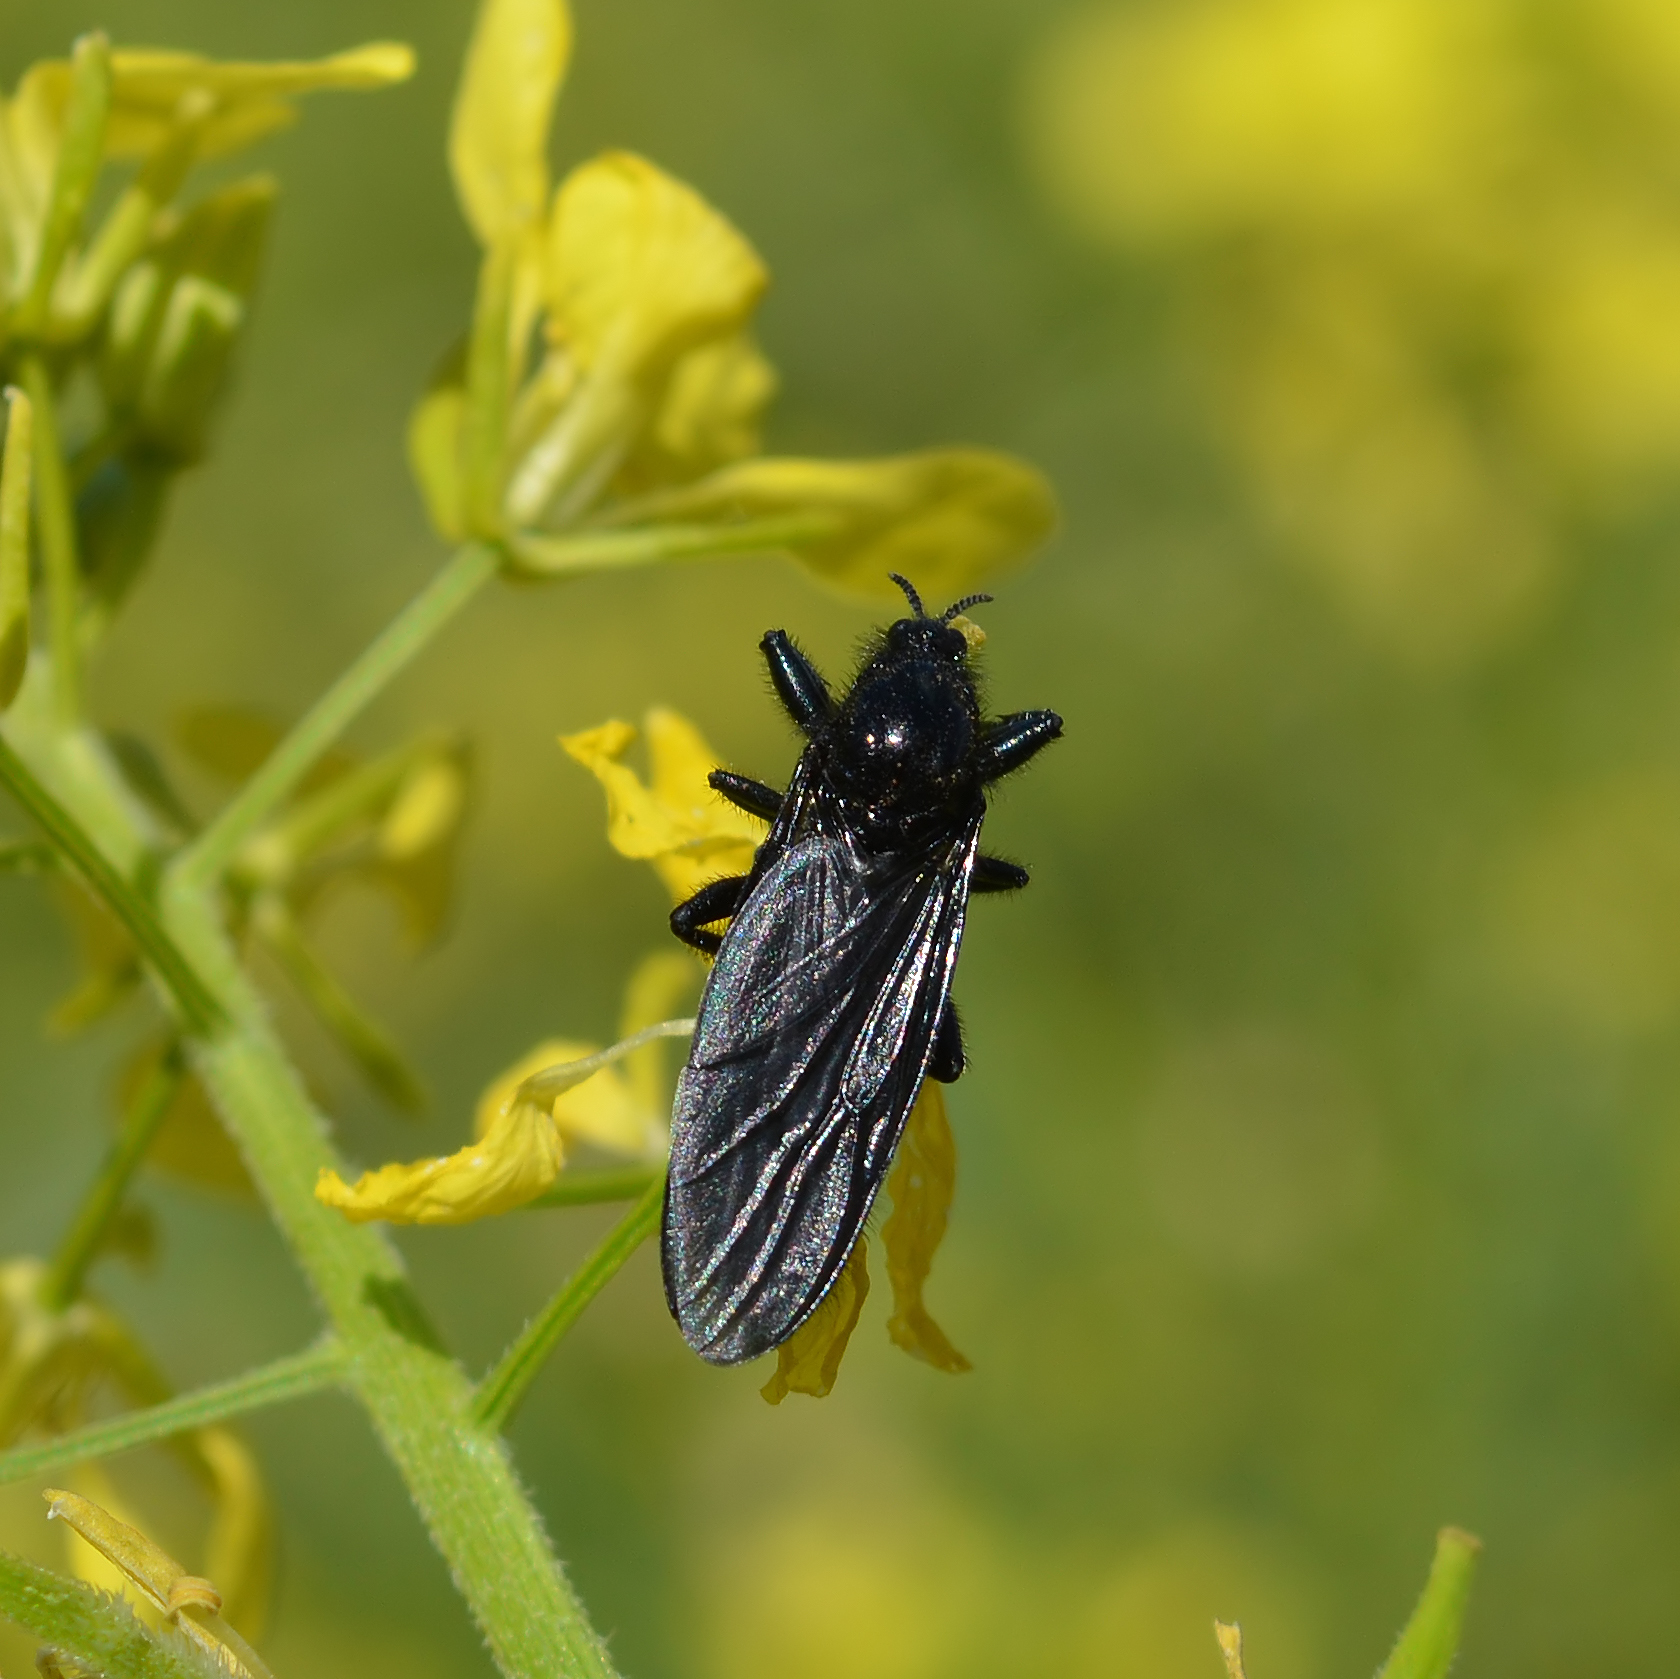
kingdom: Animalia
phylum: Arthropoda
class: Insecta
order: Diptera
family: Bibionidae
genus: Bibio
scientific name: Bibio marci
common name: St marks fly
